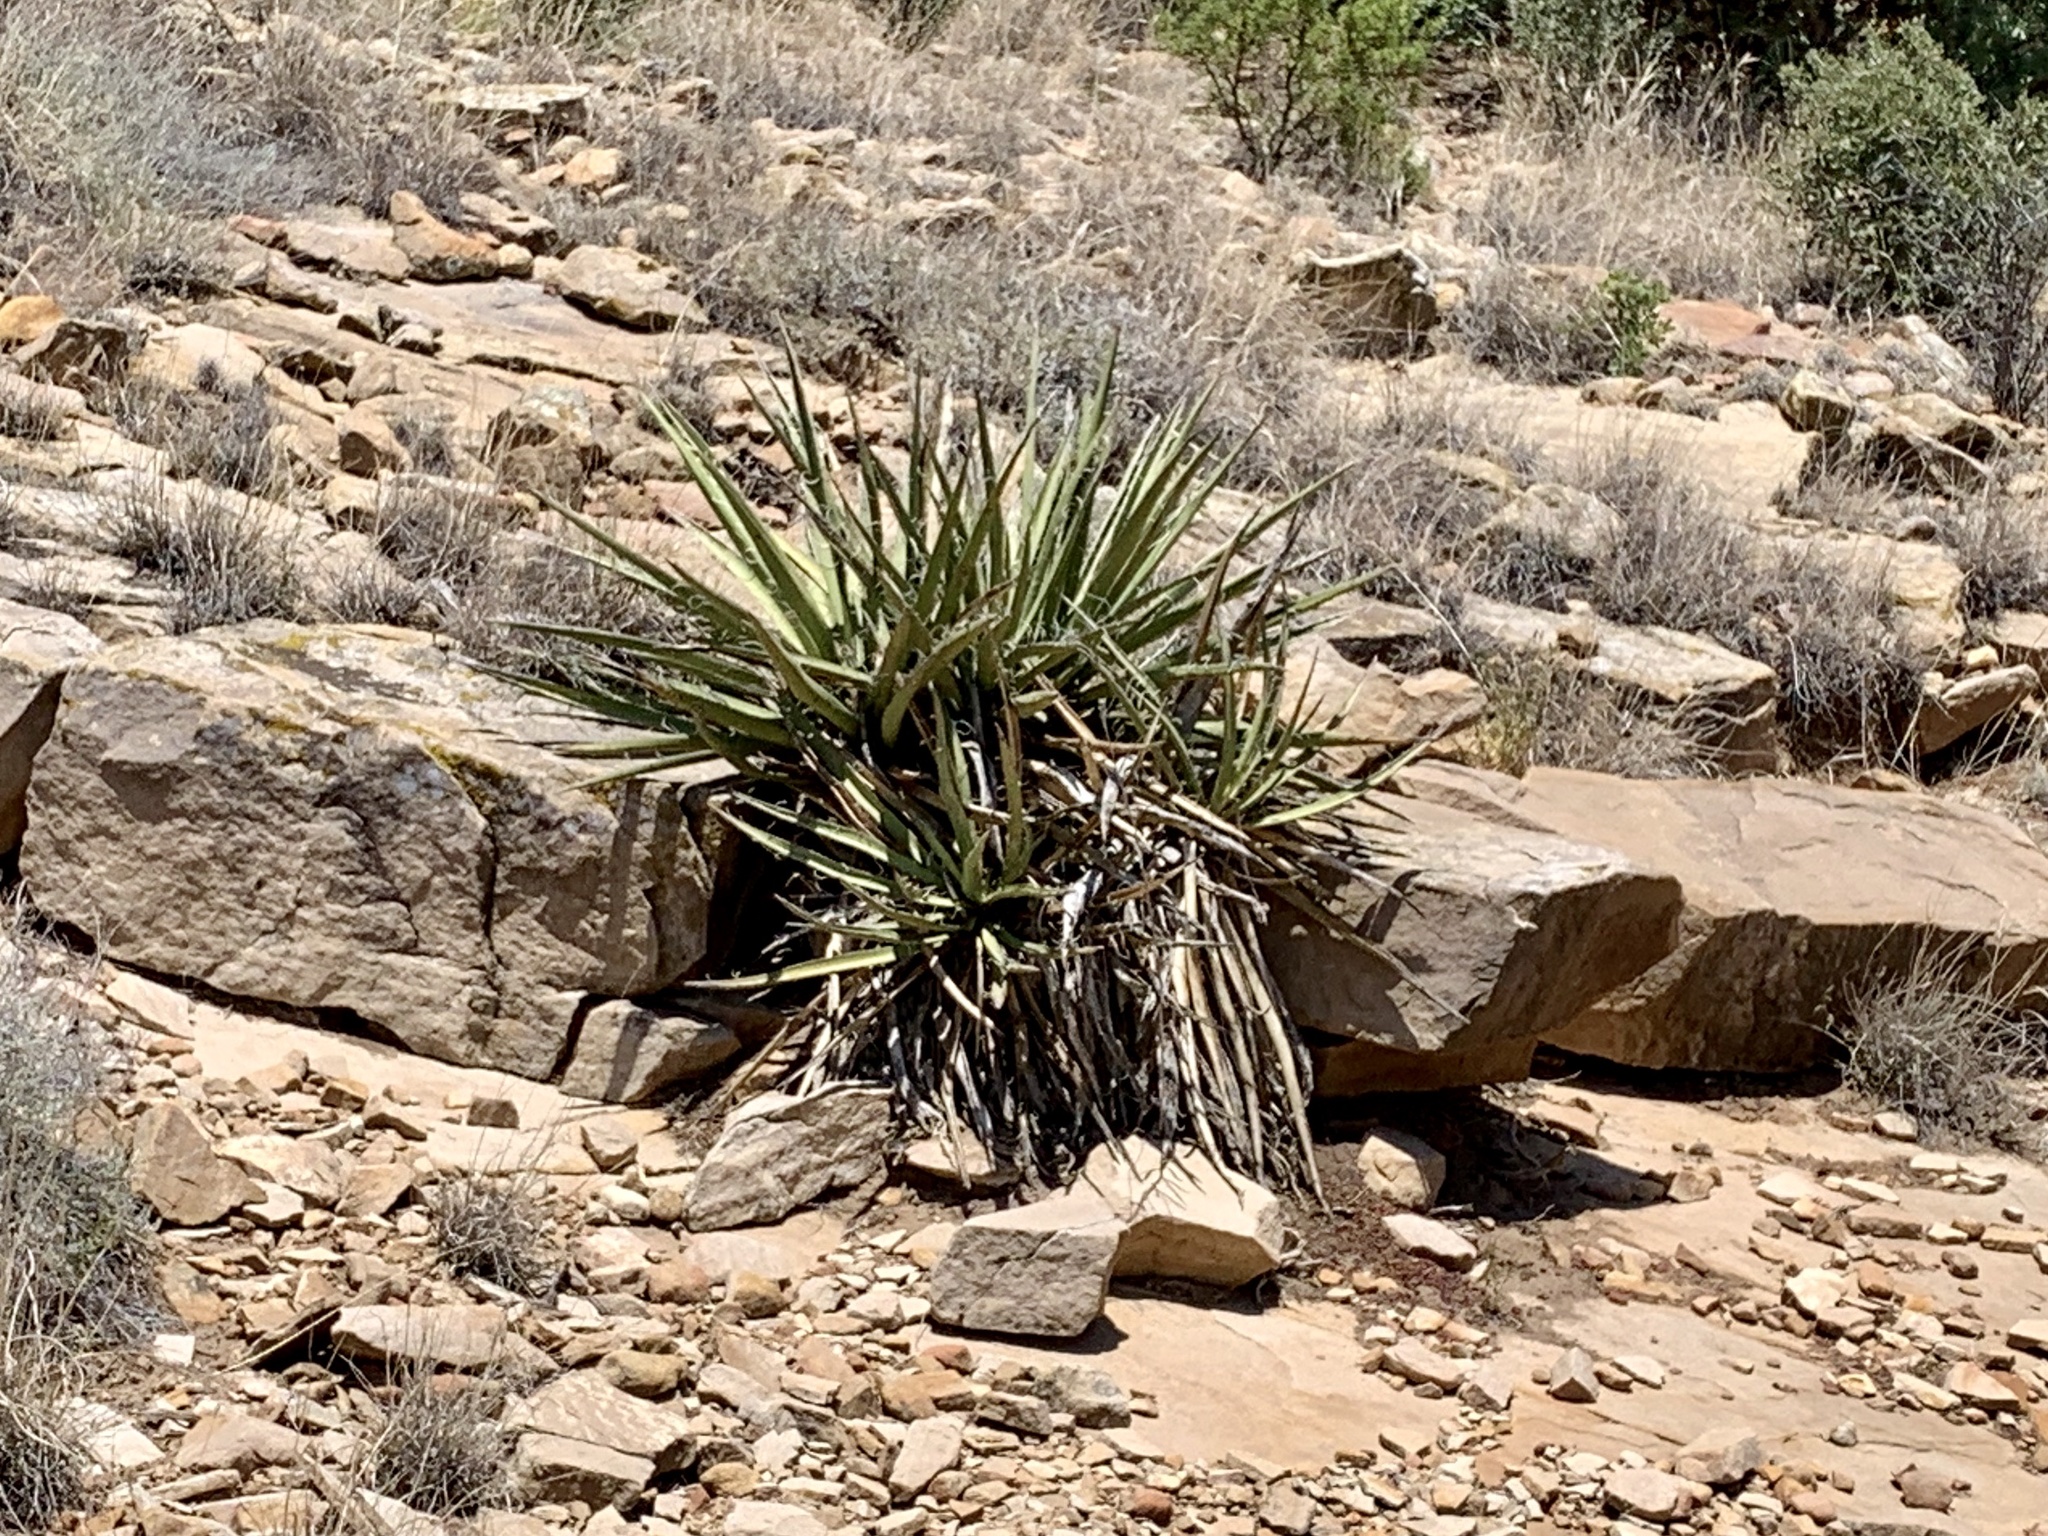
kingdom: Plantae
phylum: Tracheophyta
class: Liliopsida
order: Asparagales
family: Asparagaceae
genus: Yucca
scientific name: Yucca baccata
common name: Banana yucca
